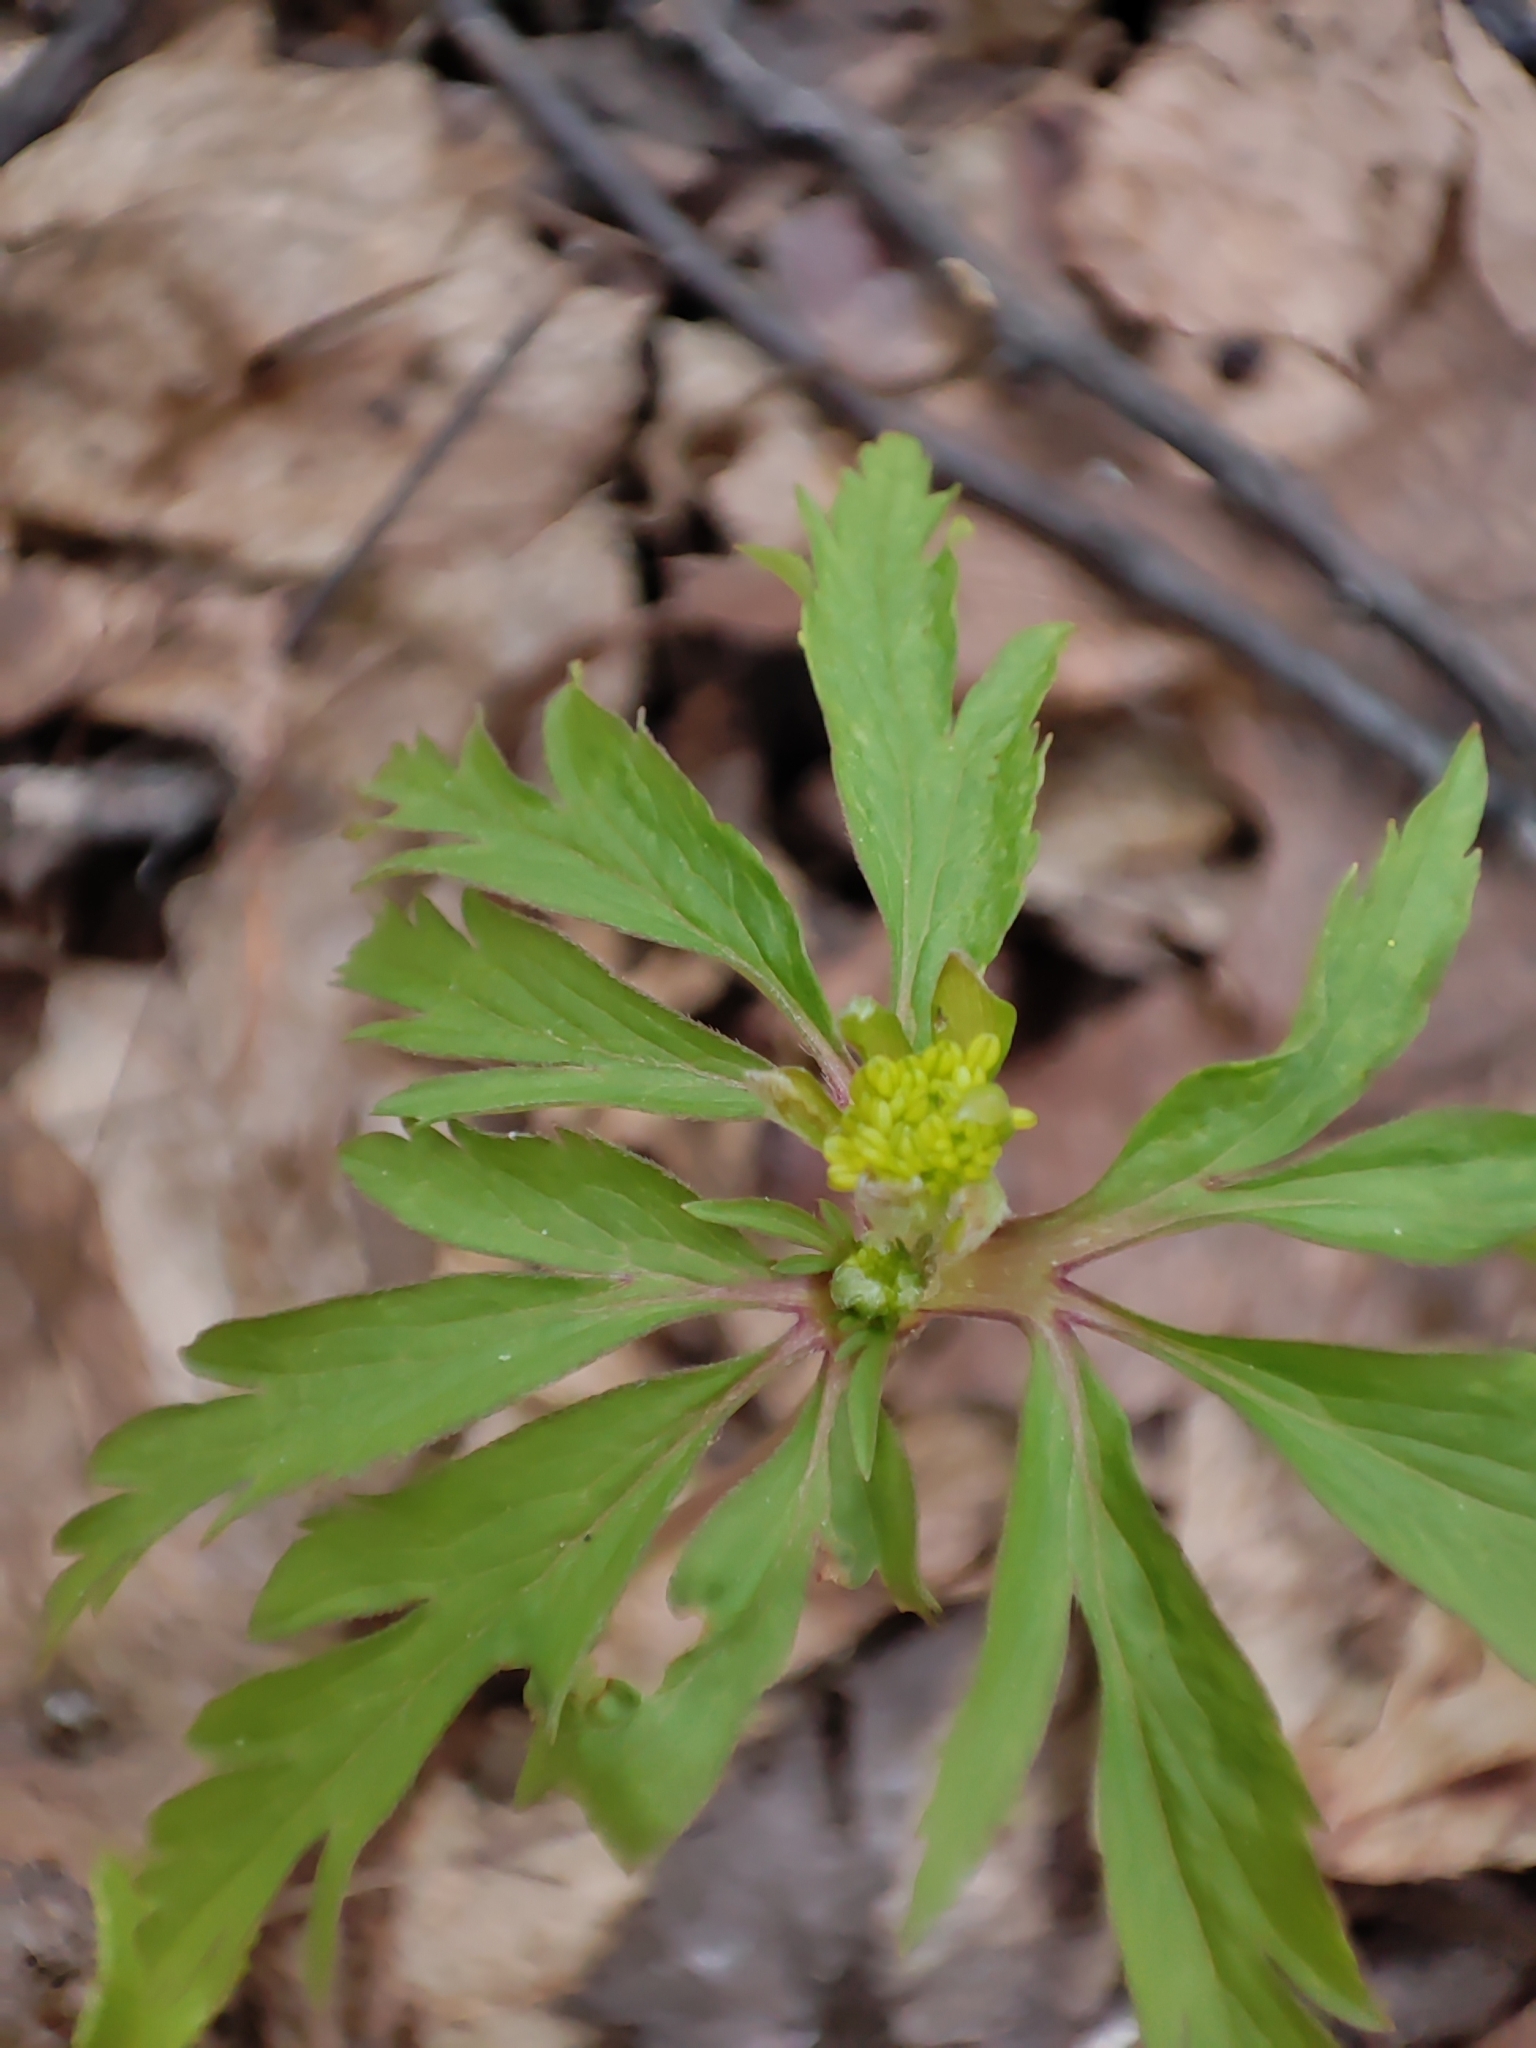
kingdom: Plantae
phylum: Tracheophyta
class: Magnoliopsida
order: Ranunculales
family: Ranunculaceae
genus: Anemone
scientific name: Anemone ranunculoides
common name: Yellow anemone
